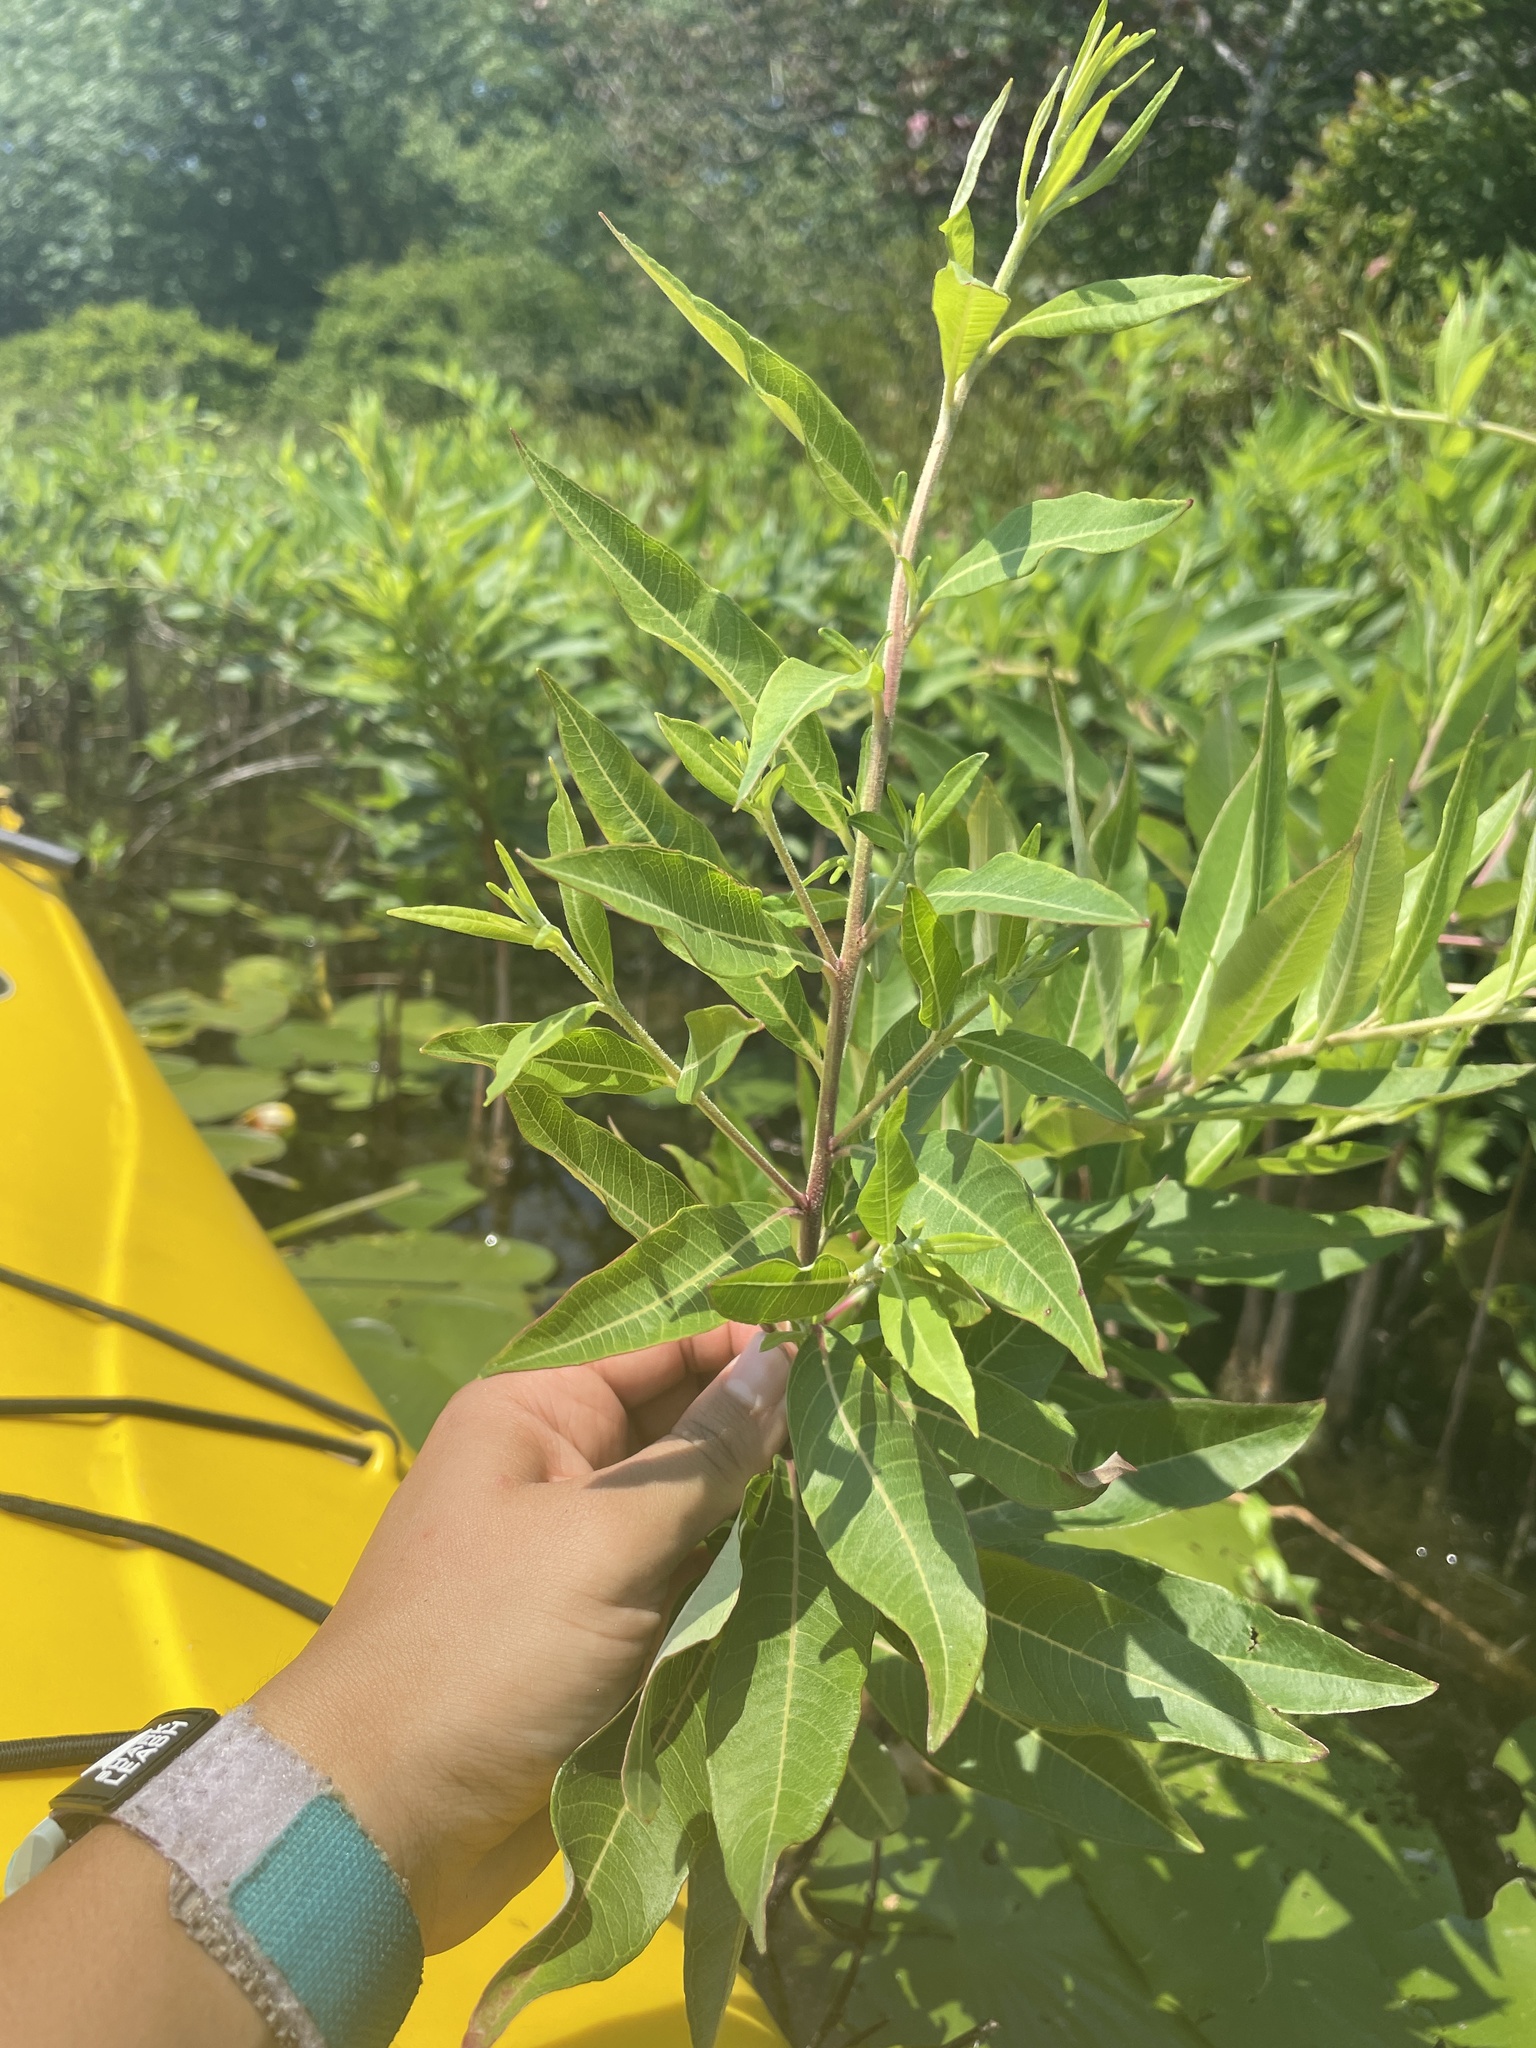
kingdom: Plantae
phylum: Tracheophyta
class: Magnoliopsida
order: Myrtales
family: Lythraceae
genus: Decodon
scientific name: Decodon verticillatus
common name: Hairy swamp loosestrife
